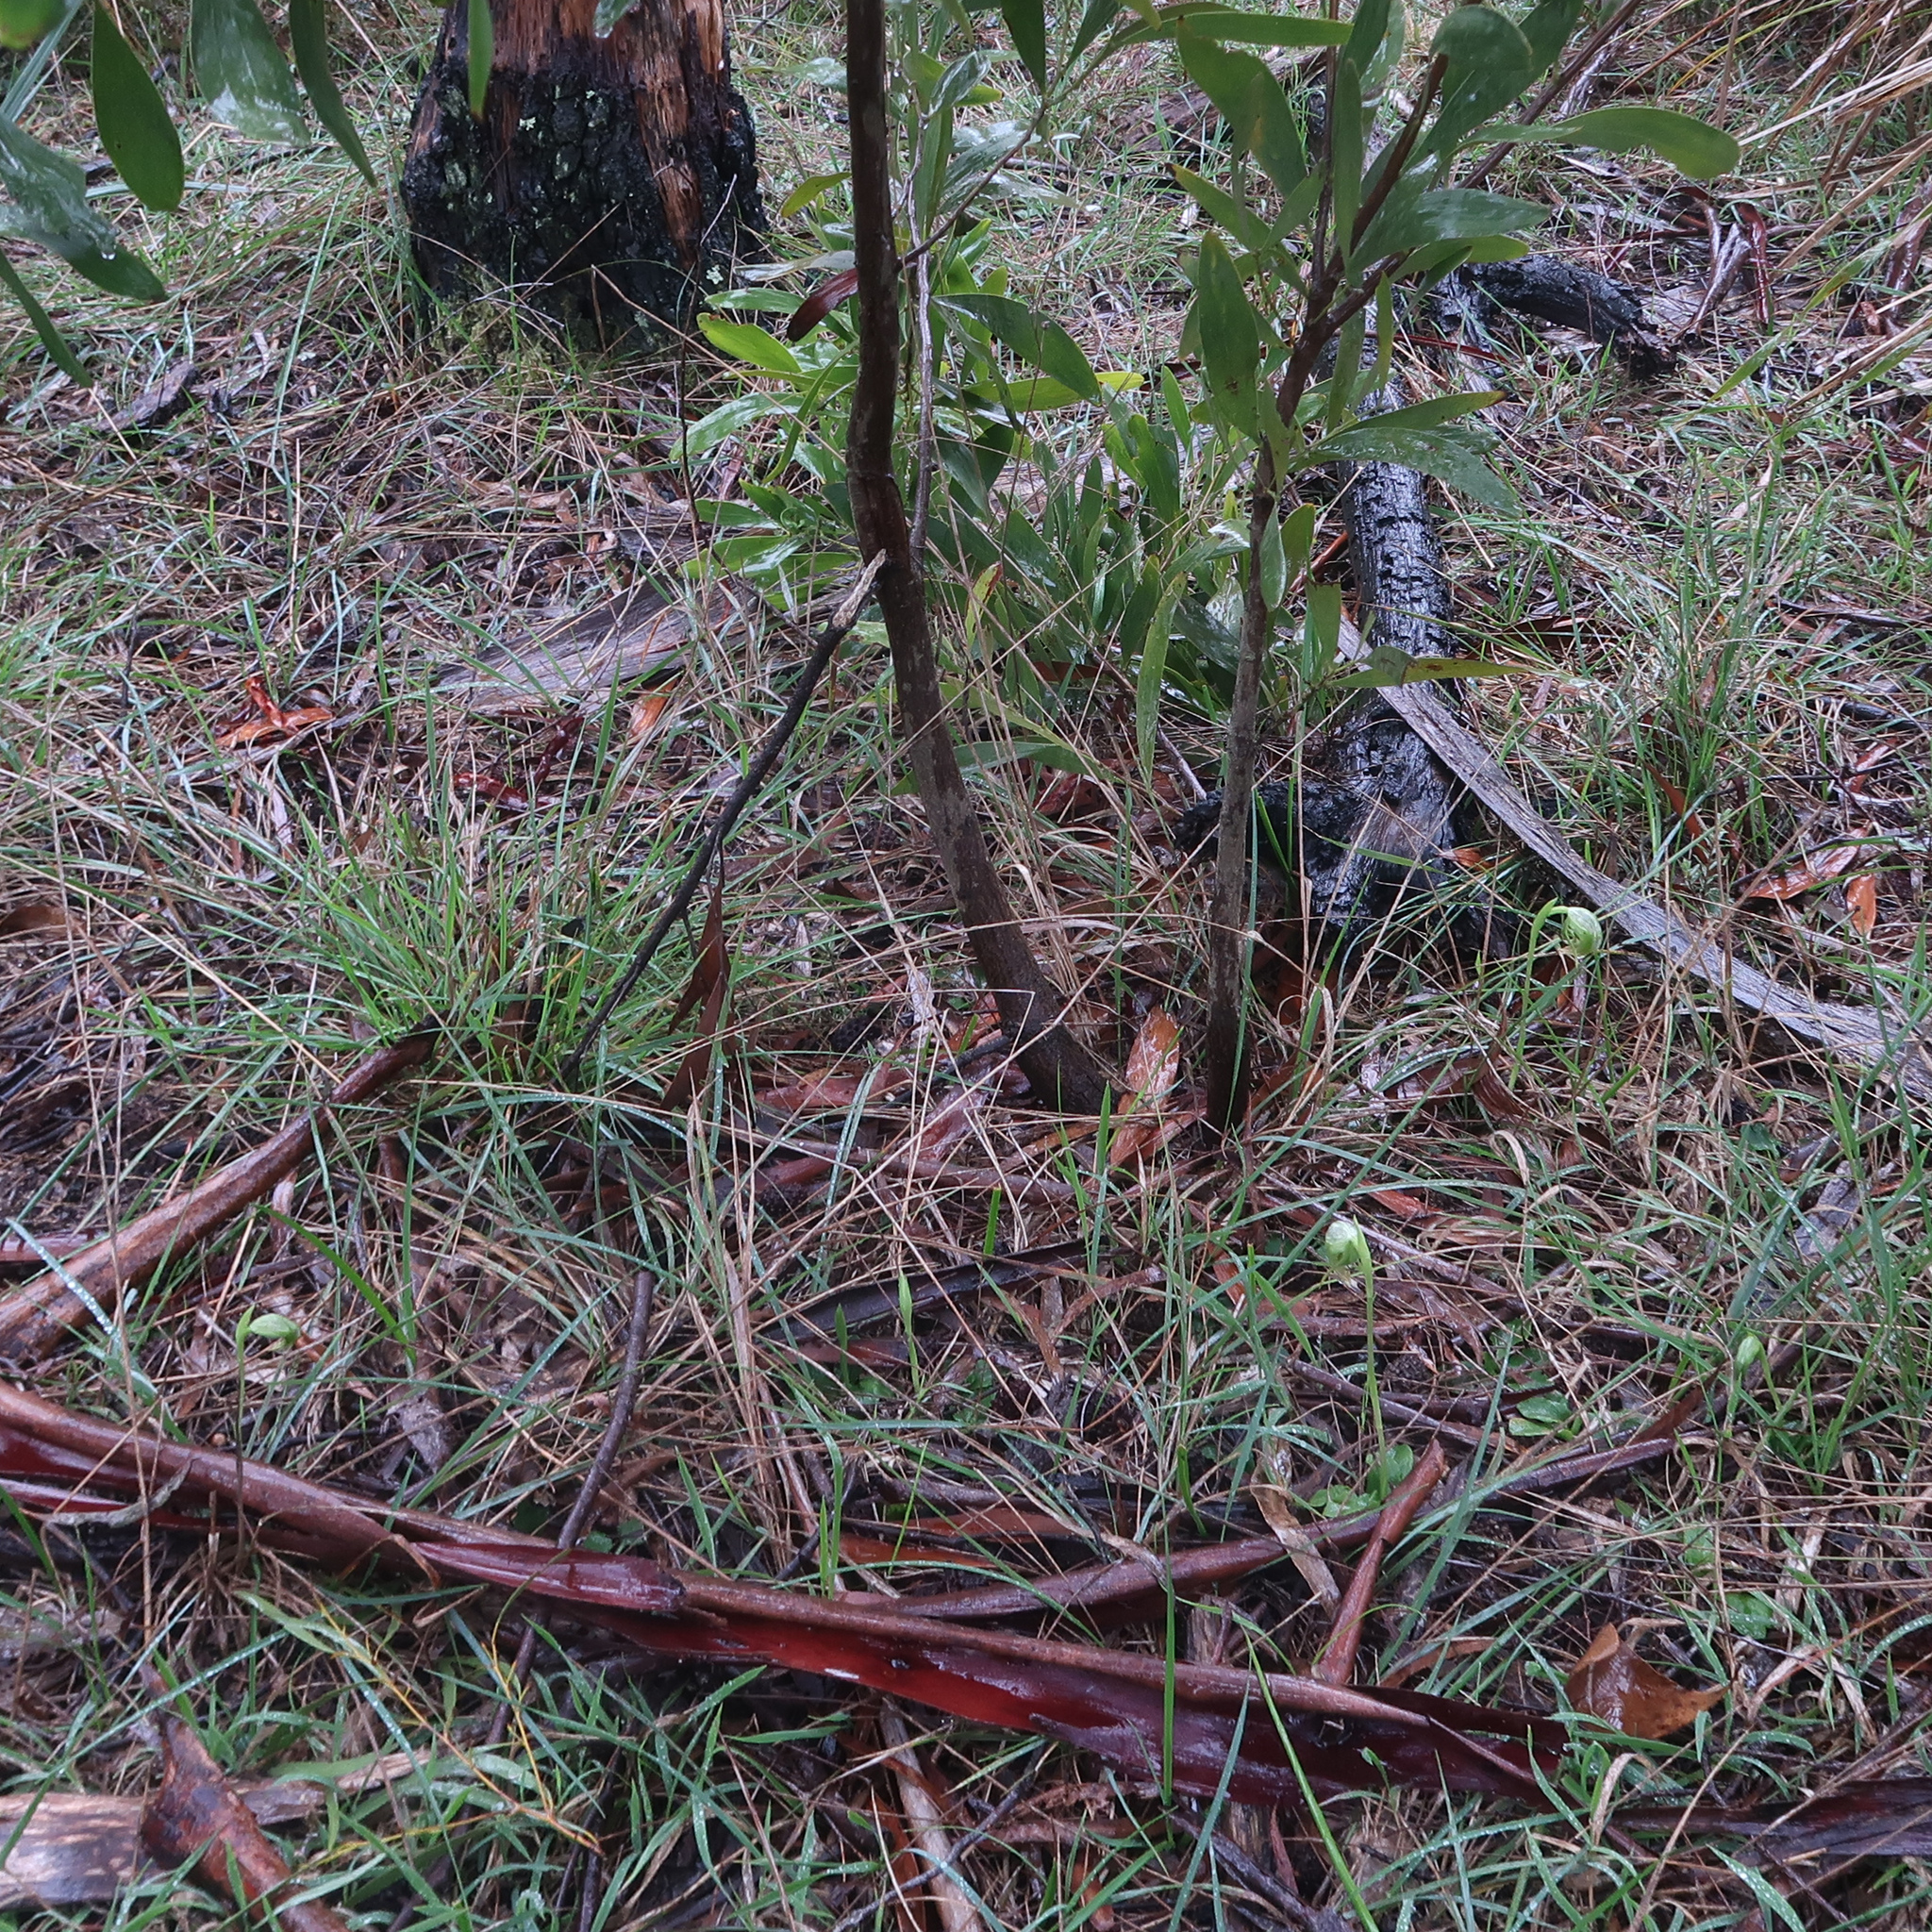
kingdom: Plantae
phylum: Tracheophyta
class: Liliopsida
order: Asparagales
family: Orchidaceae
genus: Pterostylis
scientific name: Pterostylis nutans
